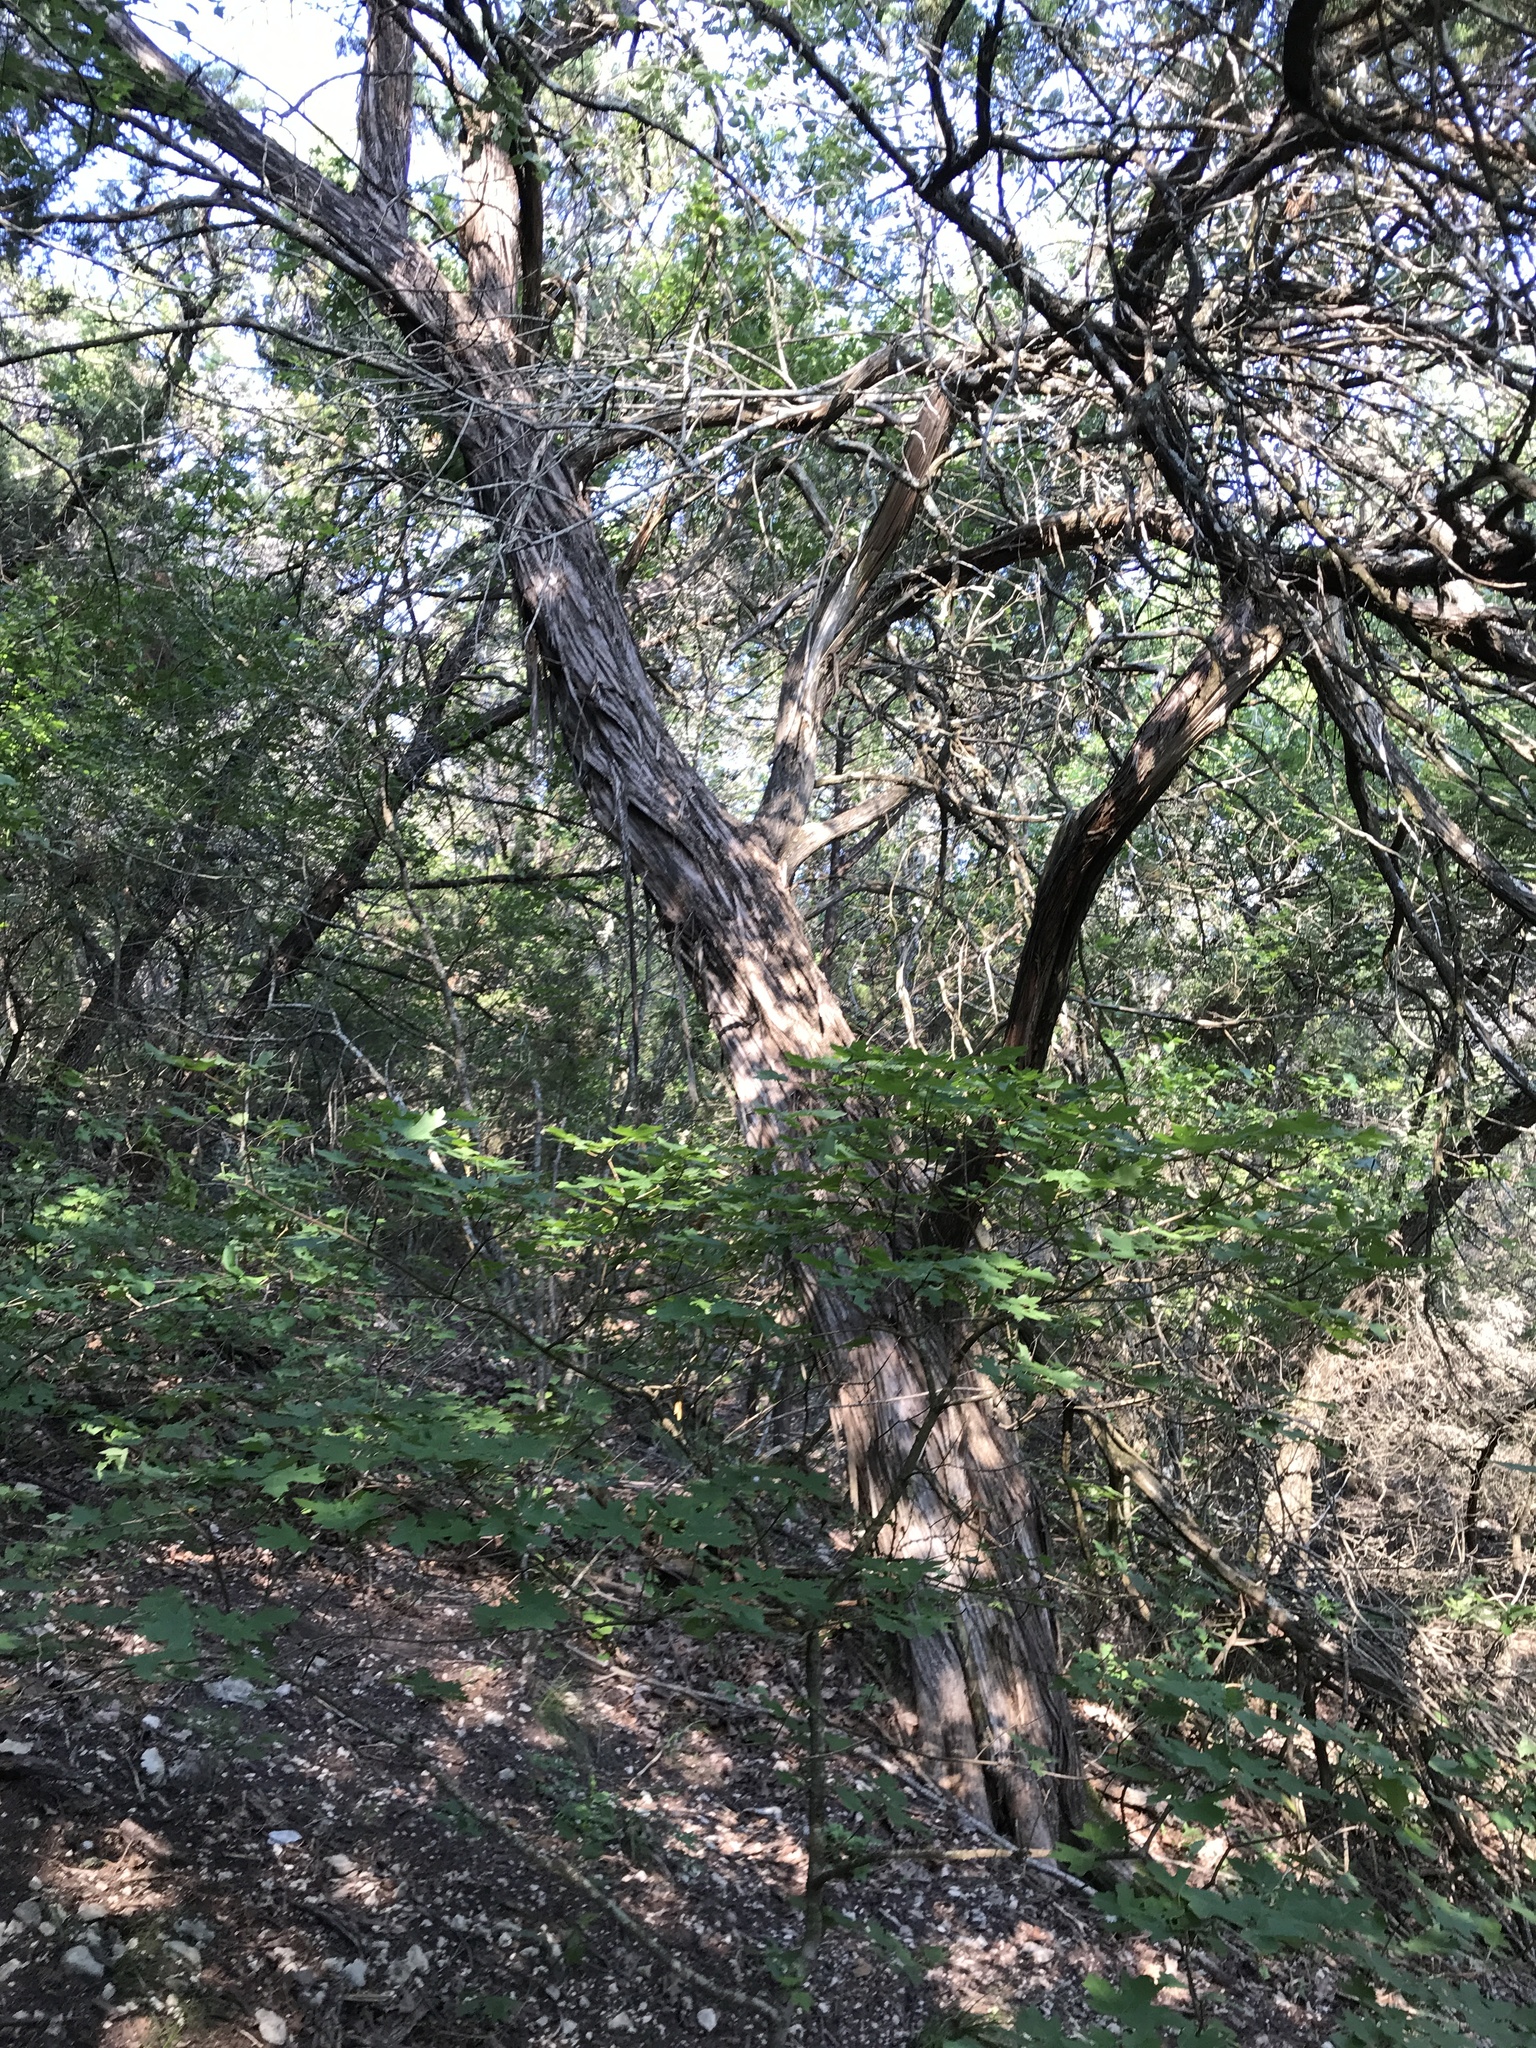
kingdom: Plantae
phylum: Tracheophyta
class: Pinopsida
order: Pinales
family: Cupressaceae
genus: Juniperus
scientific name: Juniperus ashei
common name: Mexican juniper
